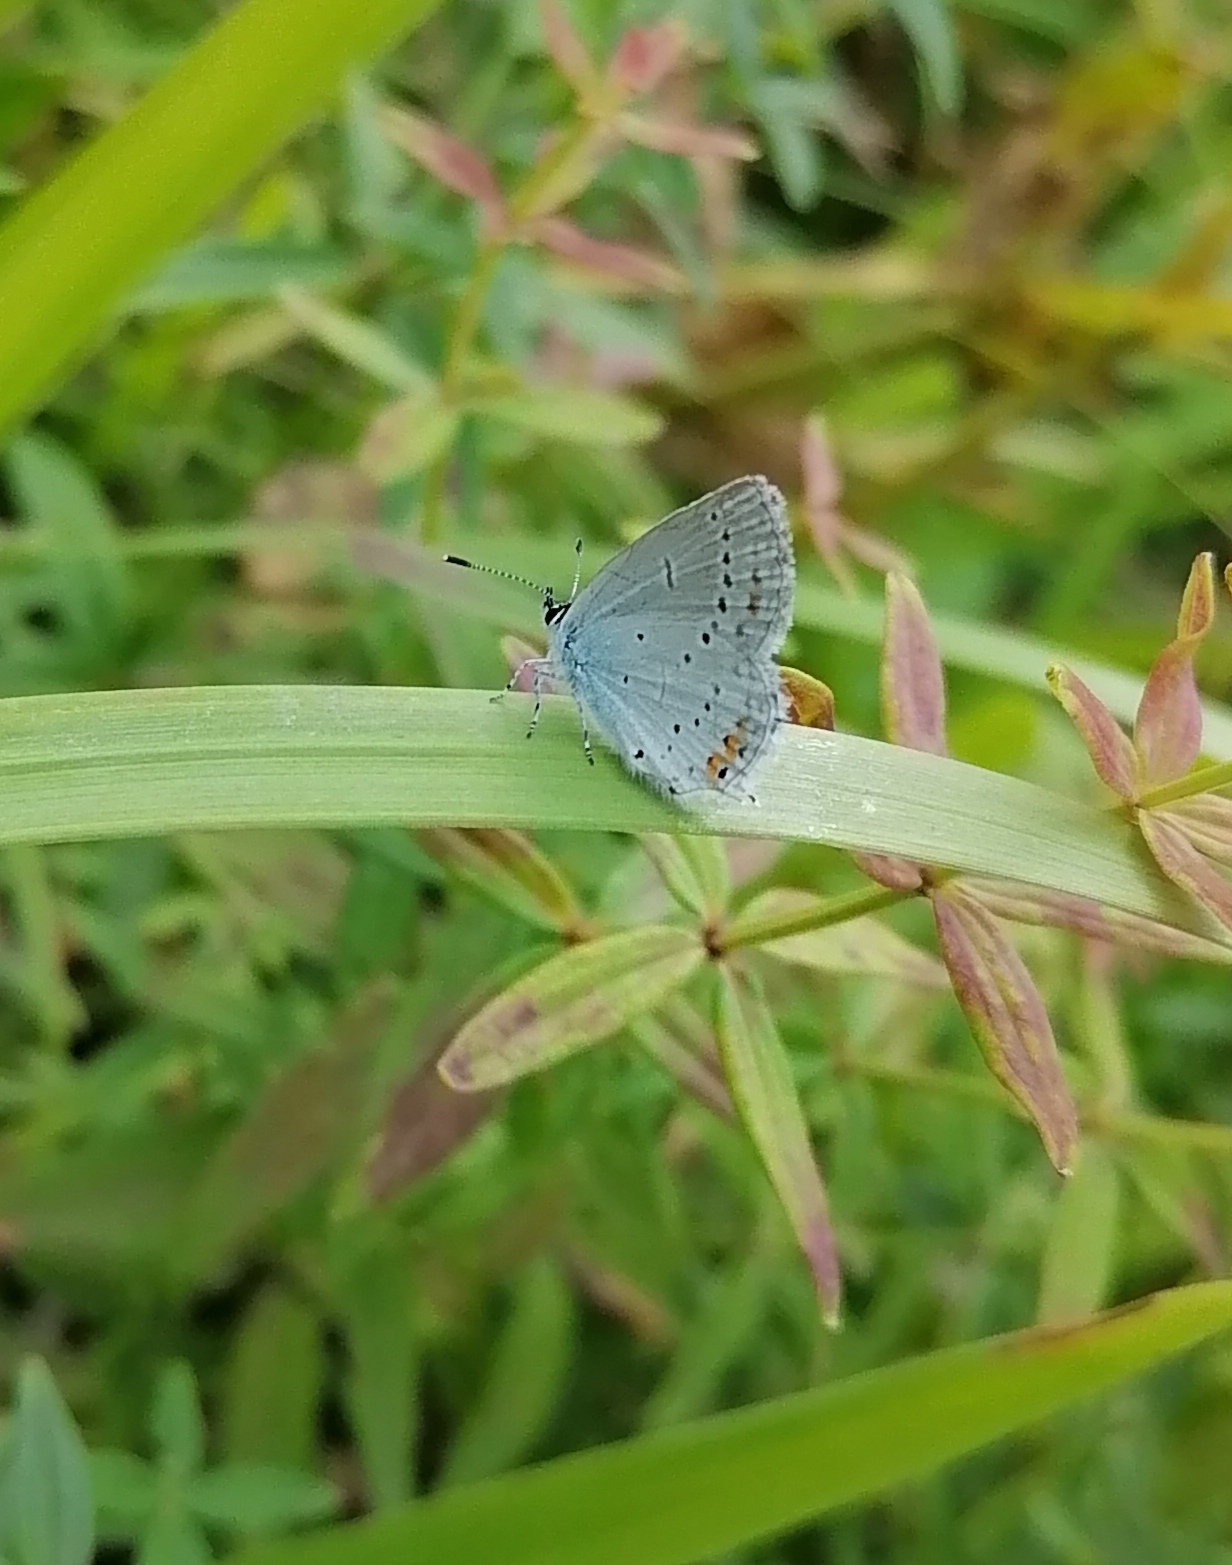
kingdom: Animalia
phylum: Arthropoda
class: Insecta
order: Lepidoptera
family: Lycaenidae
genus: Elkalyce
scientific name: Elkalyce argiades
